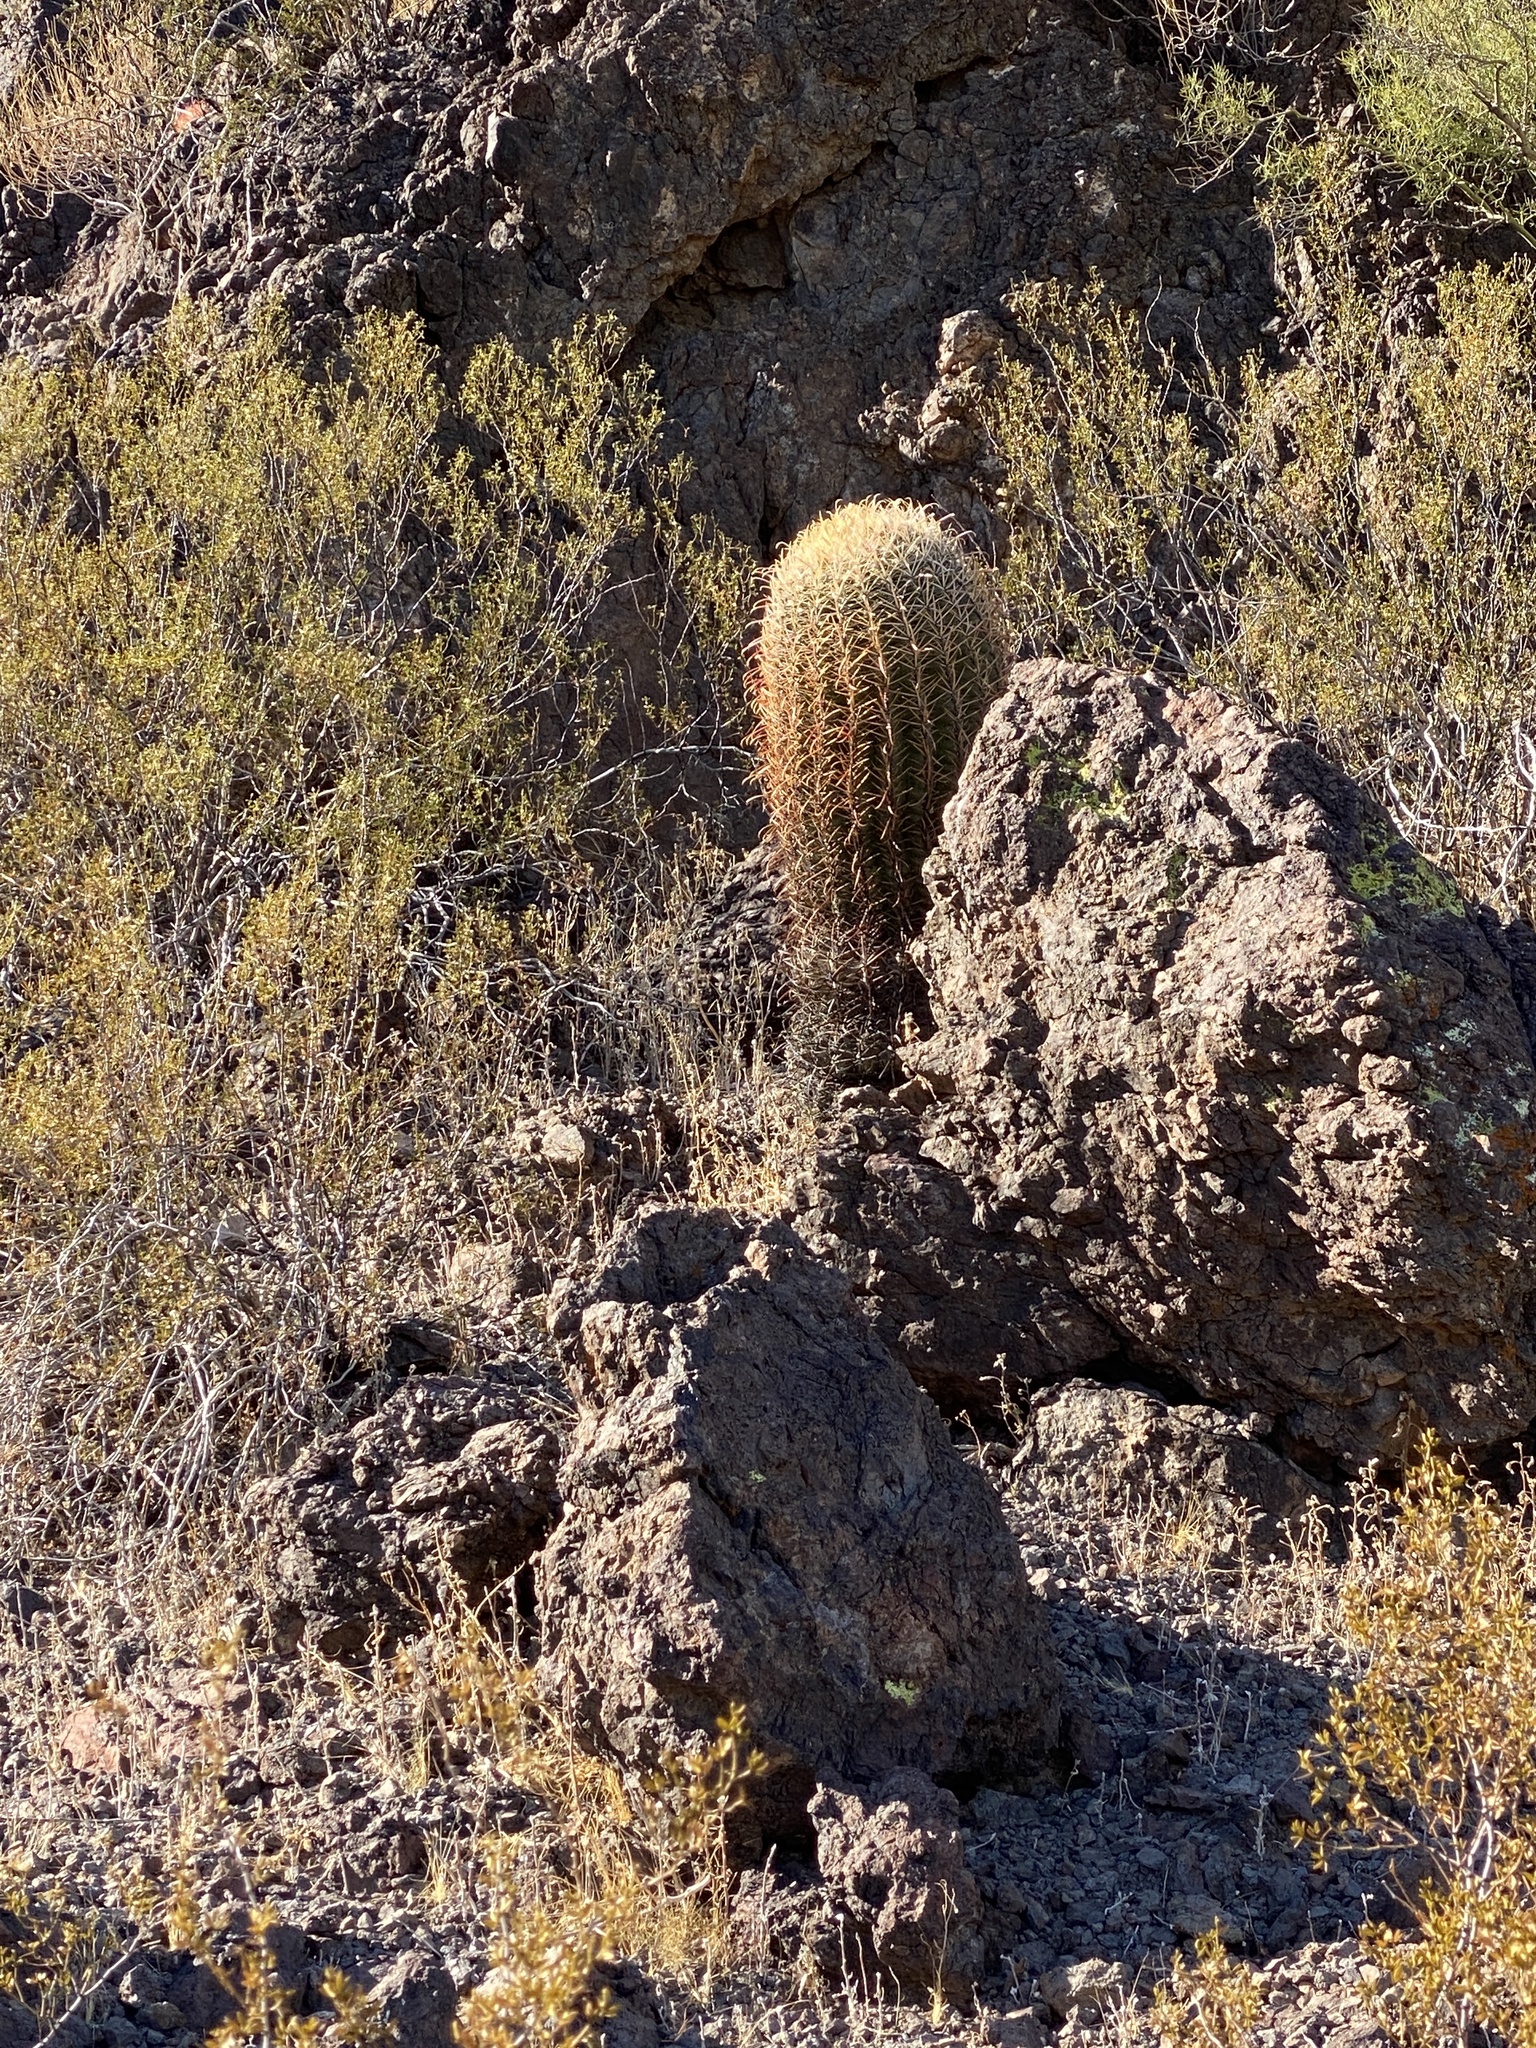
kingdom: Plantae
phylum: Tracheophyta
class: Magnoliopsida
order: Caryophyllales
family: Cactaceae
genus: Ferocactus
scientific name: Ferocactus cylindraceus
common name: California barrel cactus
